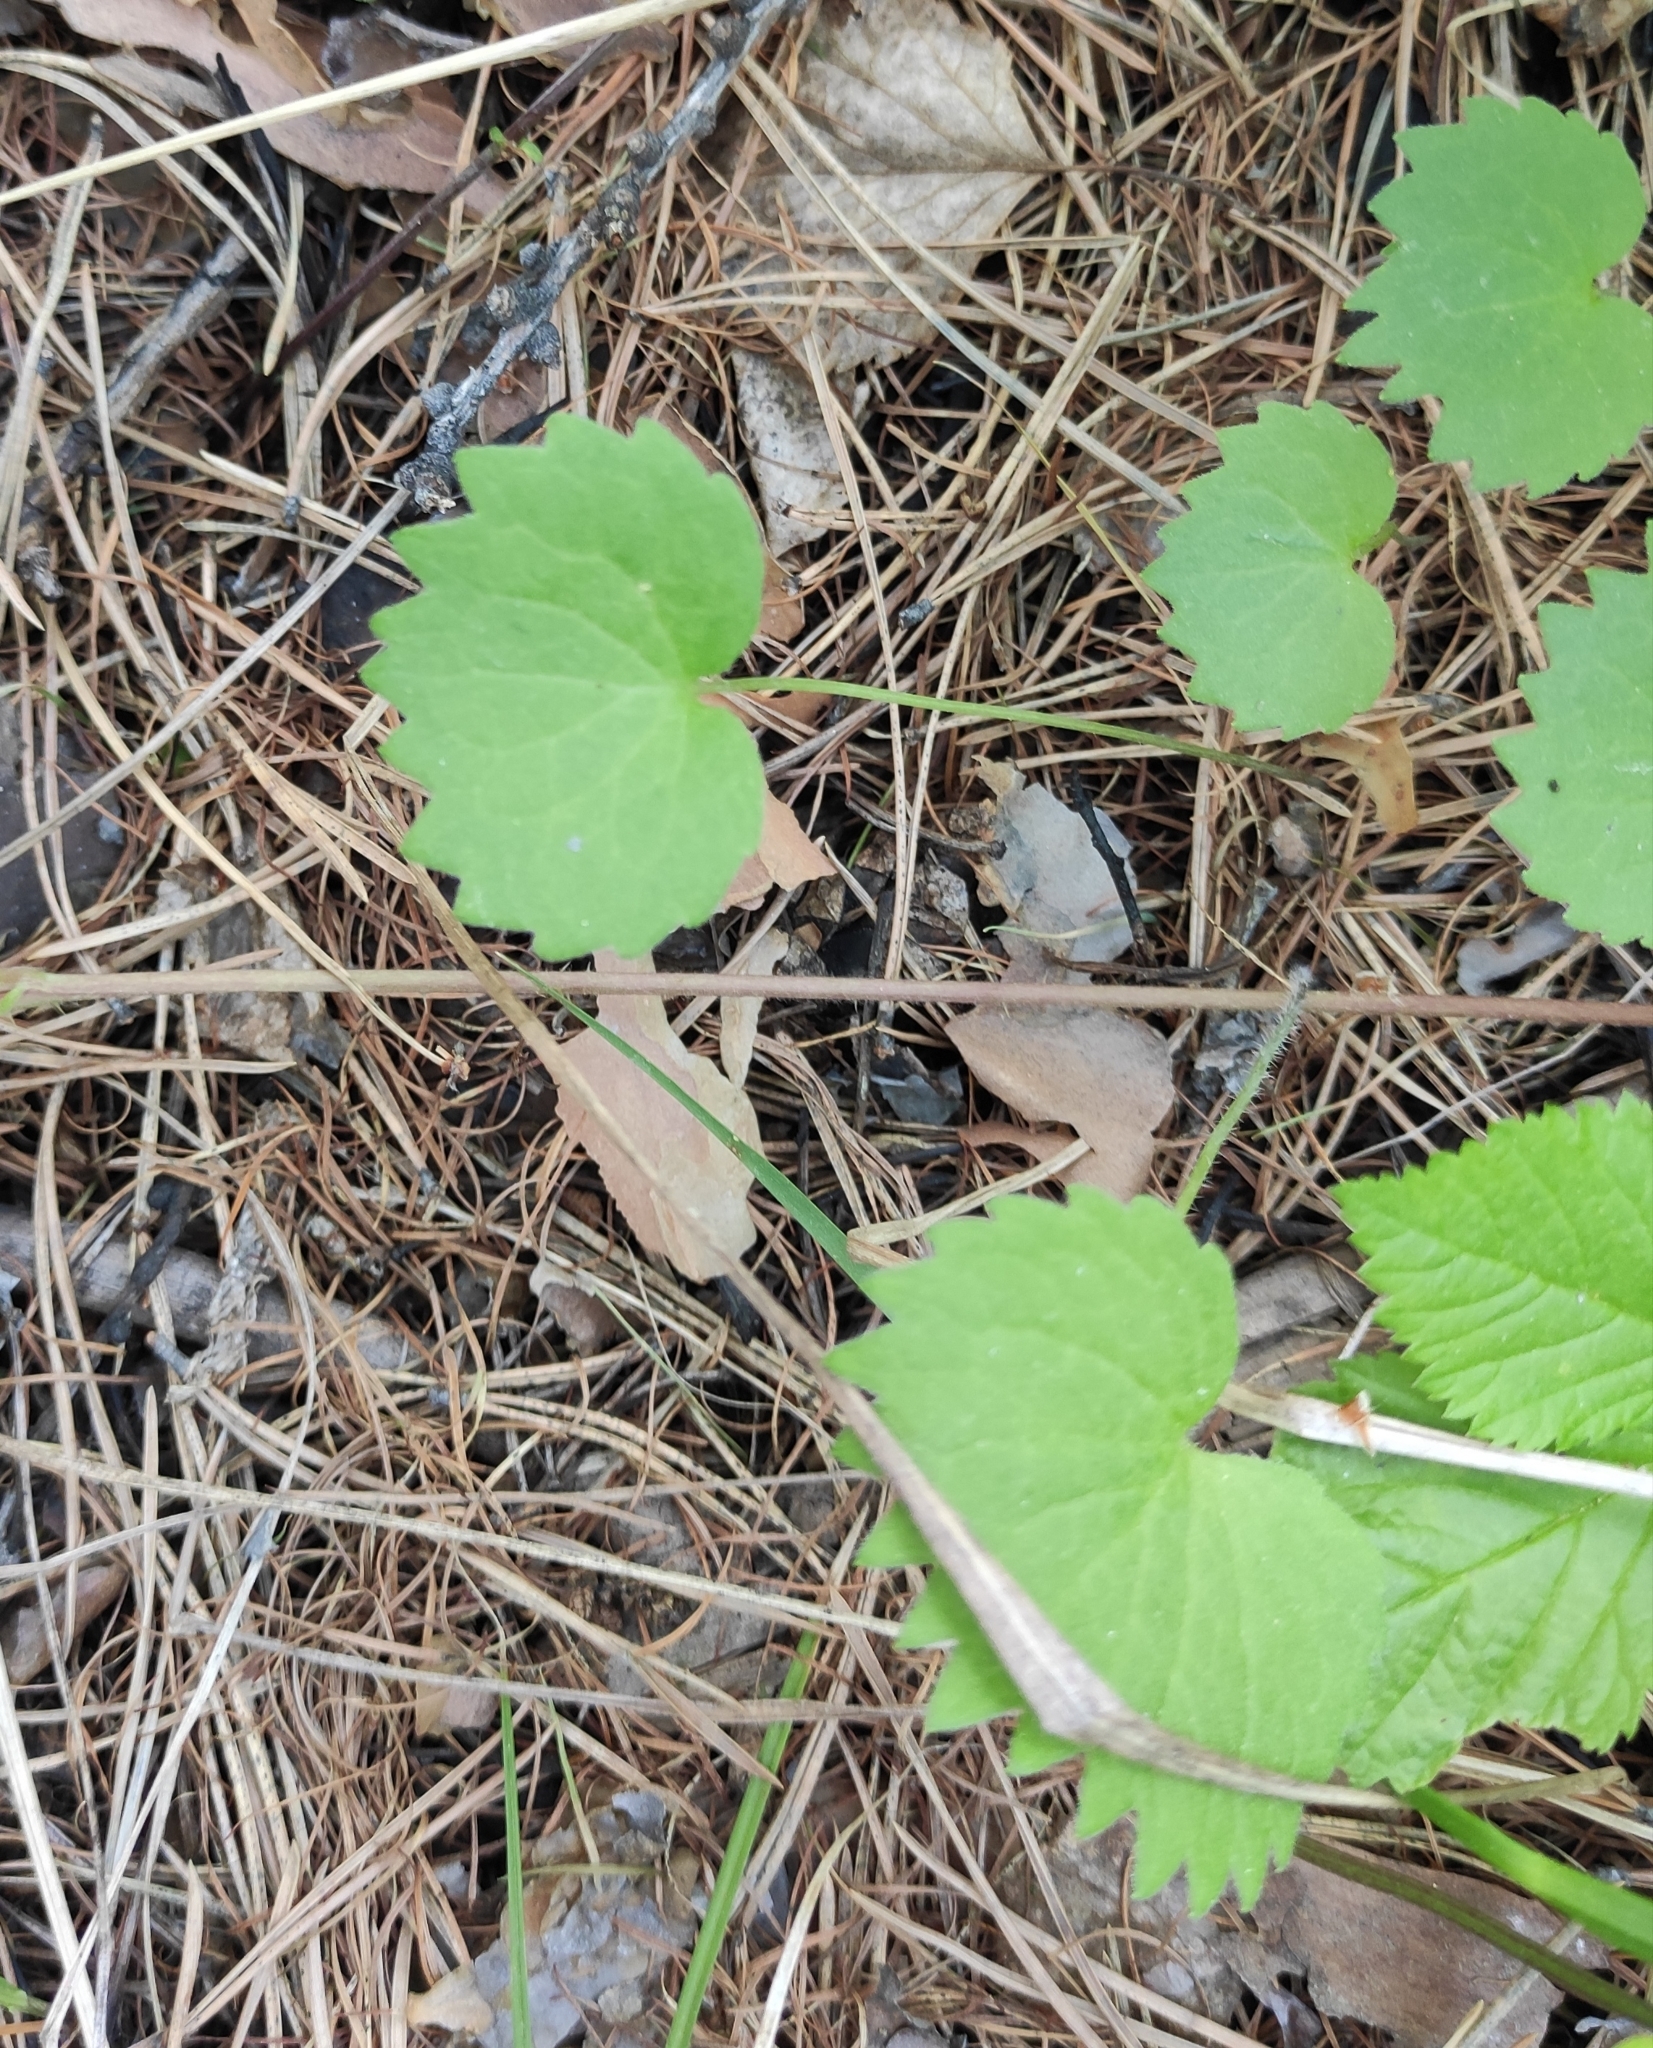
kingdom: Plantae
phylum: Tracheophyta
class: Magnoliopsida
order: Malpighiales
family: Violaceae
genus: Viola
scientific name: Viola uniflora
